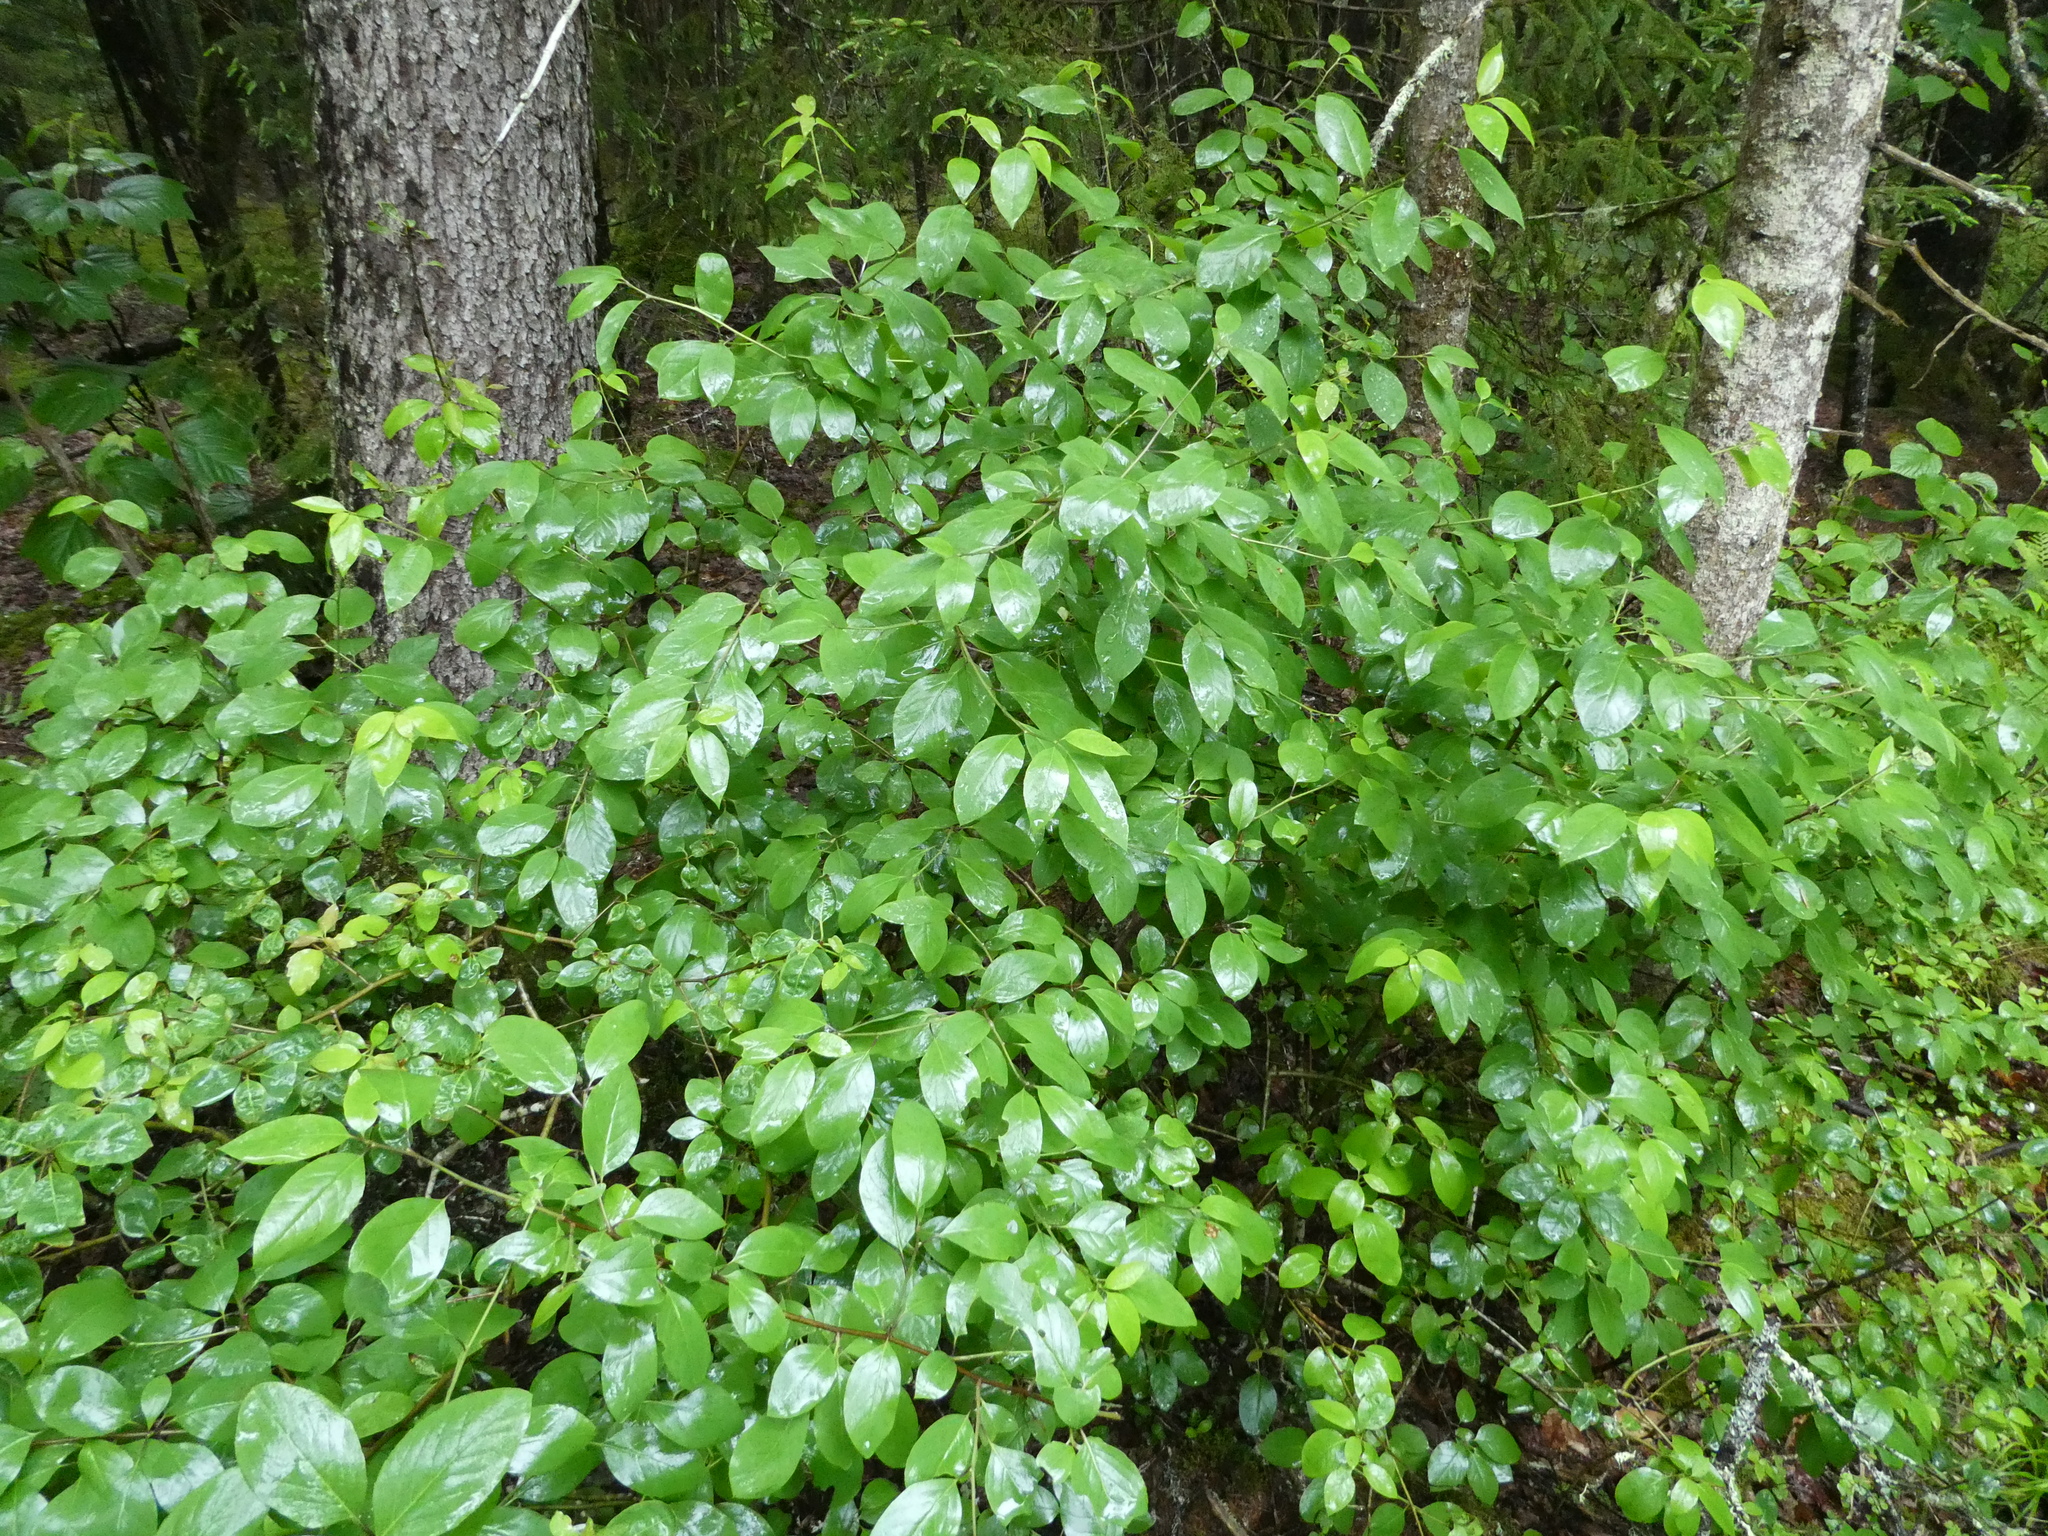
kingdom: Plantae
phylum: Tracheophyta
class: Magnoliopsida
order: Aquifoliales
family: Aquifoliaceae
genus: Ilex
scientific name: Ilex mucronata
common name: Catberry
